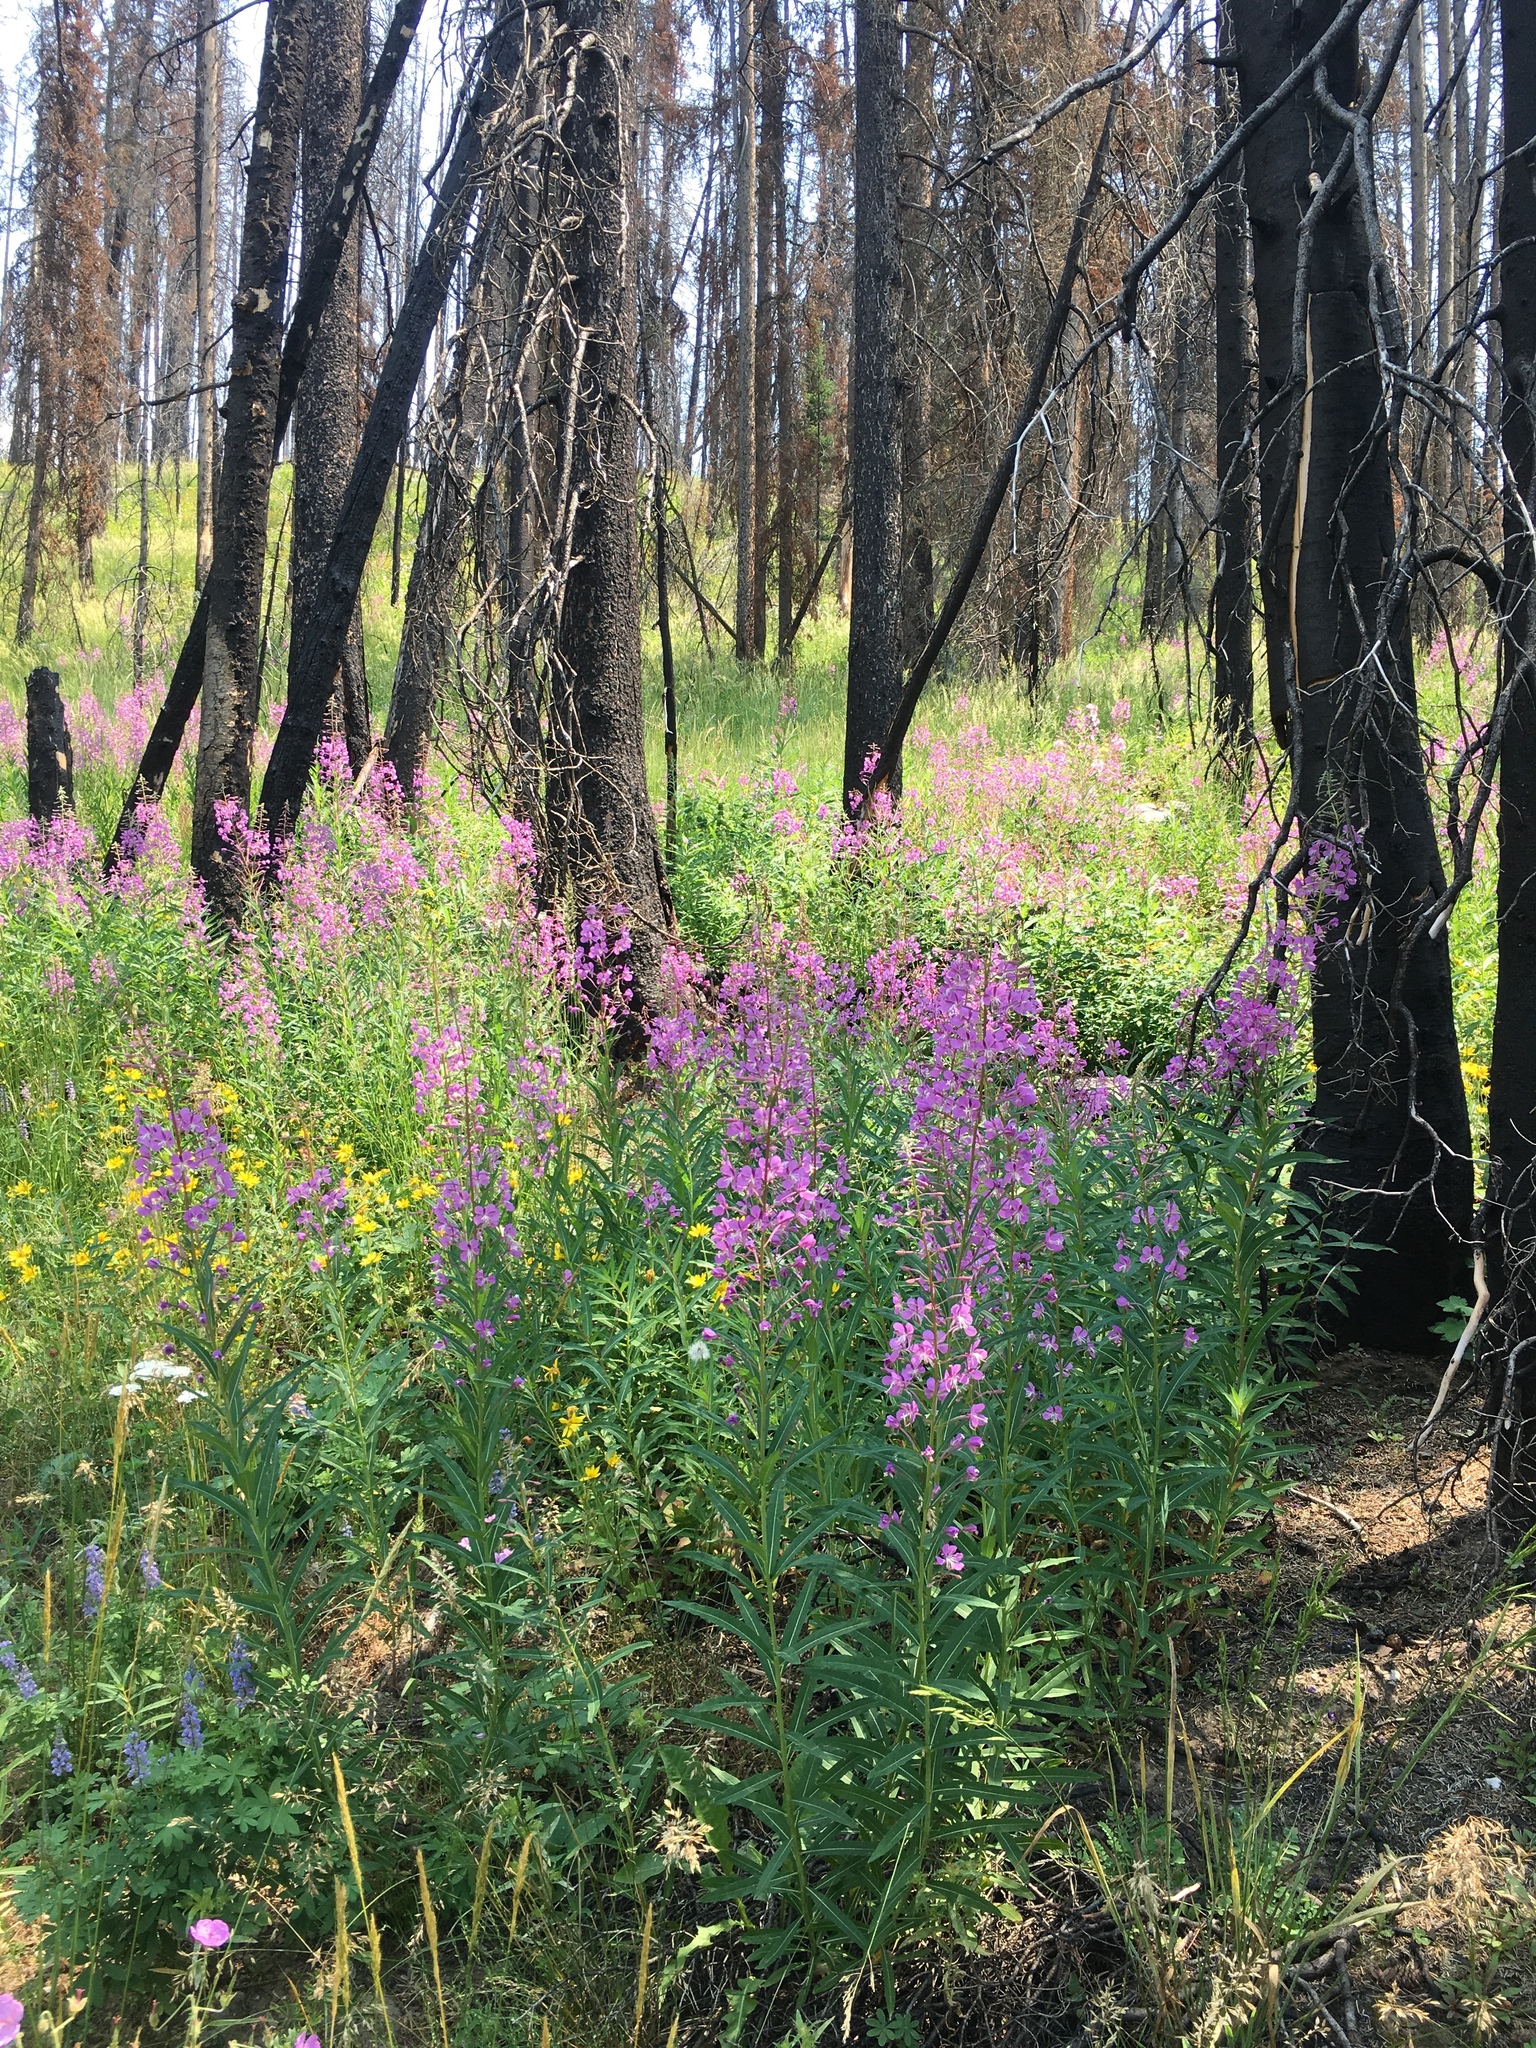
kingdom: Plantae
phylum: Tracheophyta
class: Magnoliopsida
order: Myrtales
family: Onagraceae
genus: Chamaenerion
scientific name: Chamaenerion angustifolium
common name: Fireweed
